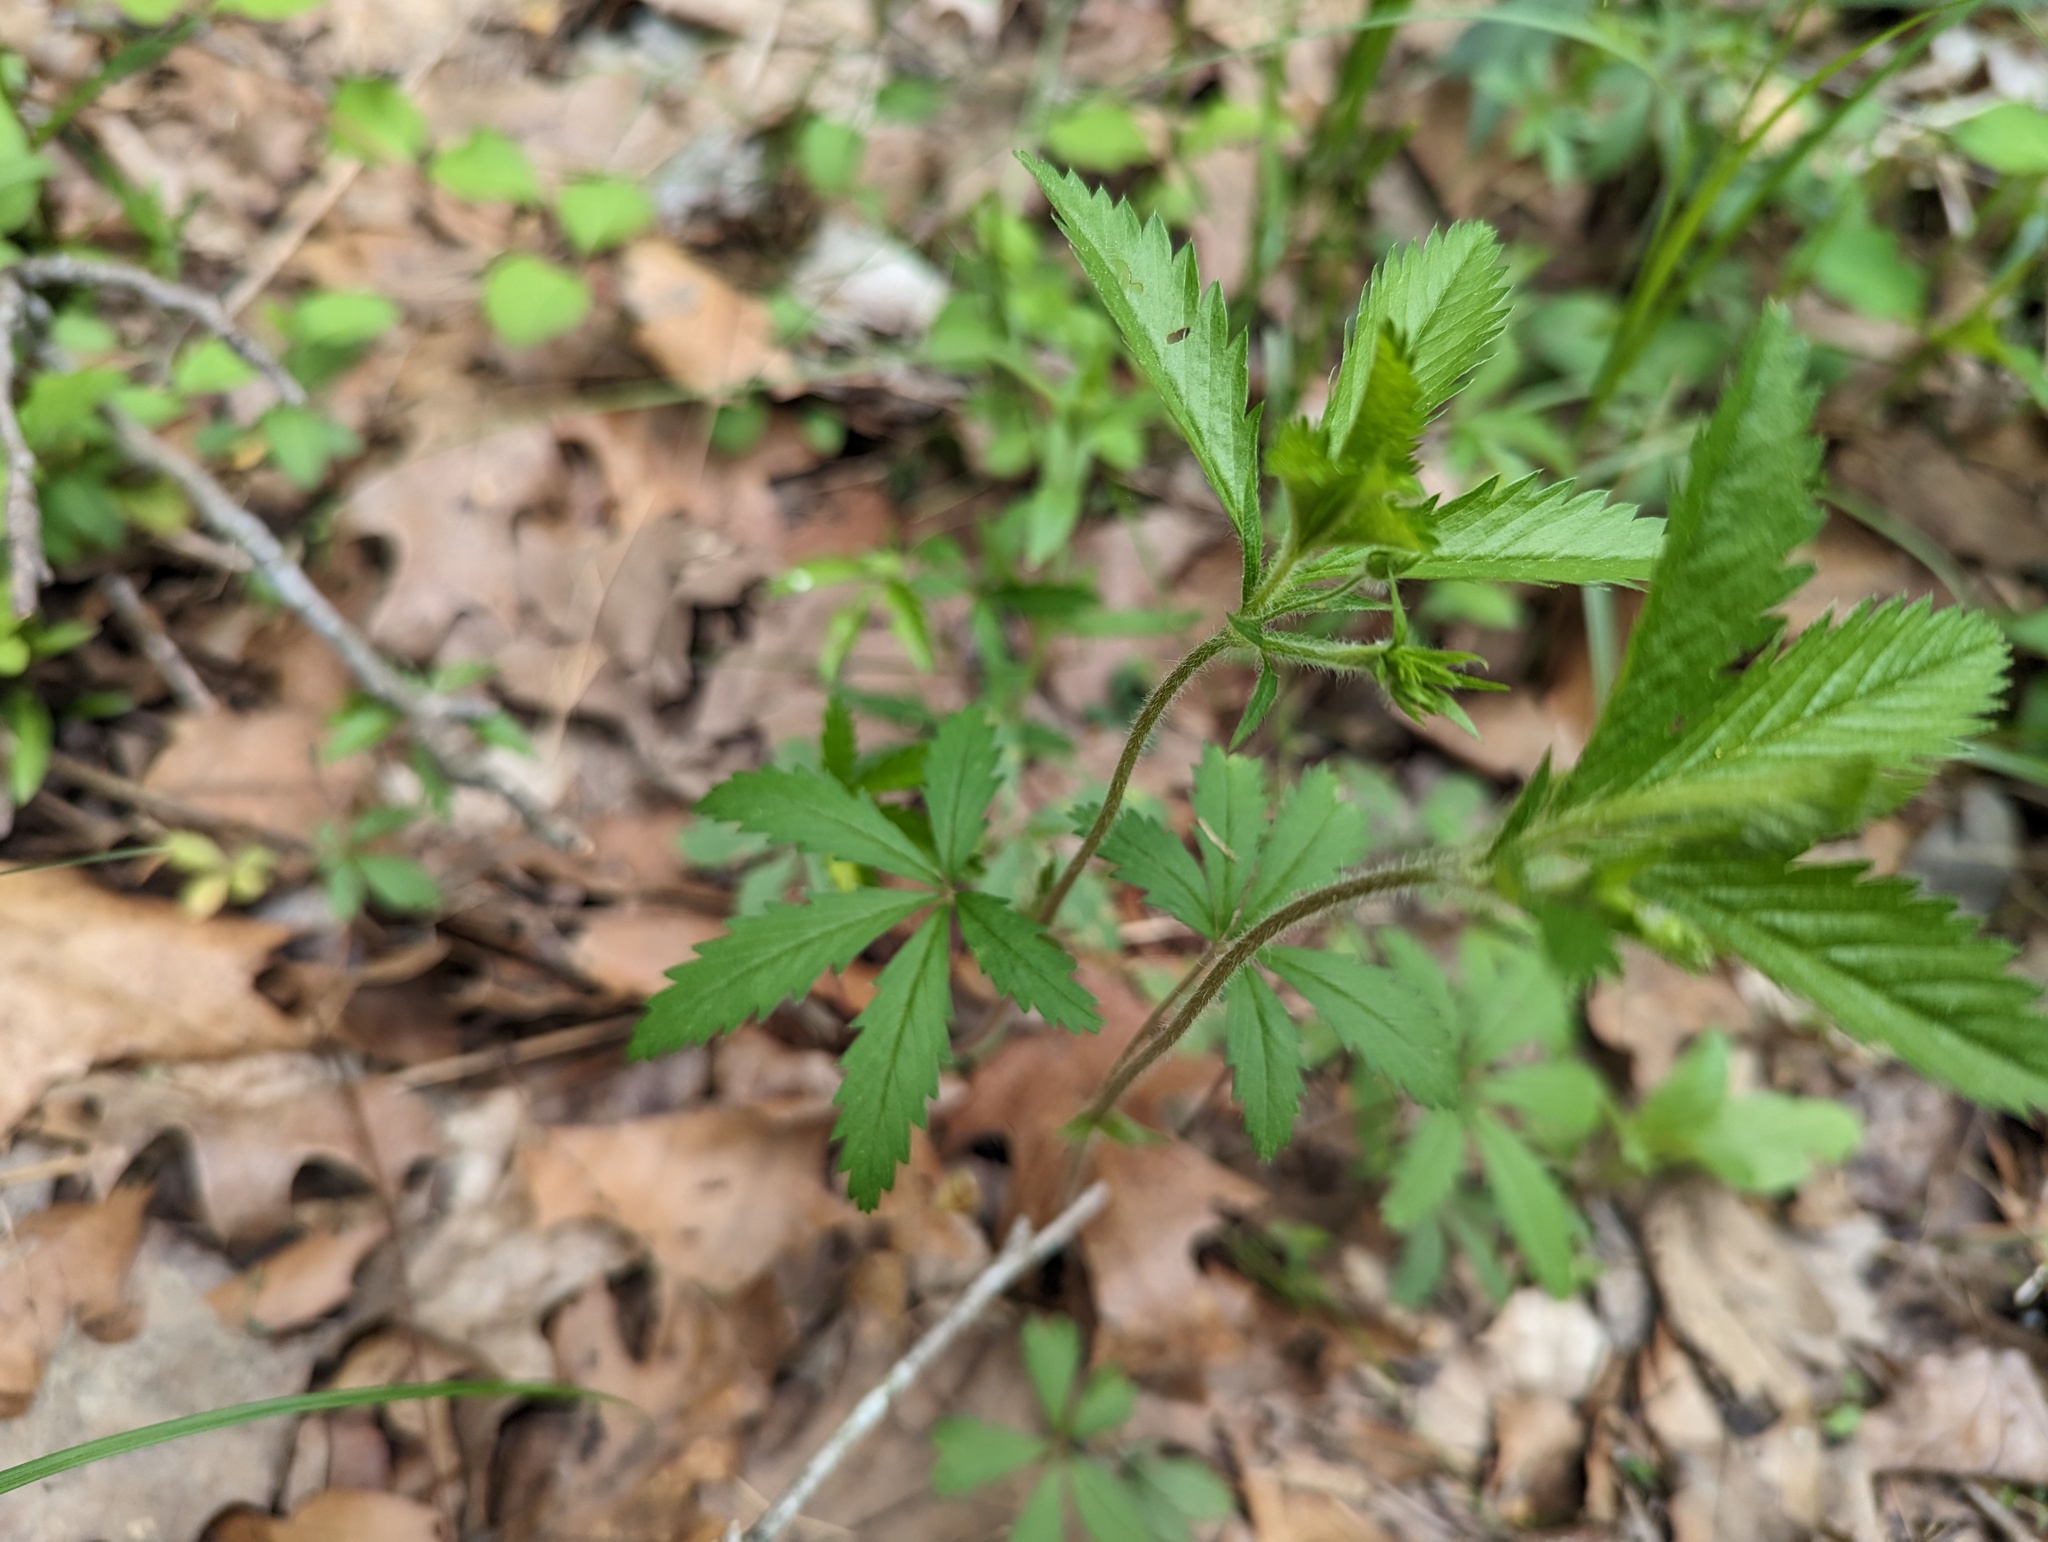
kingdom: Plantae
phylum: Tracheophyta
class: Magnoliopsida
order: Rosales
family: Rosaceae
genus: Potentilla
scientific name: Potentilla simplex
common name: Old field cinquefoil
